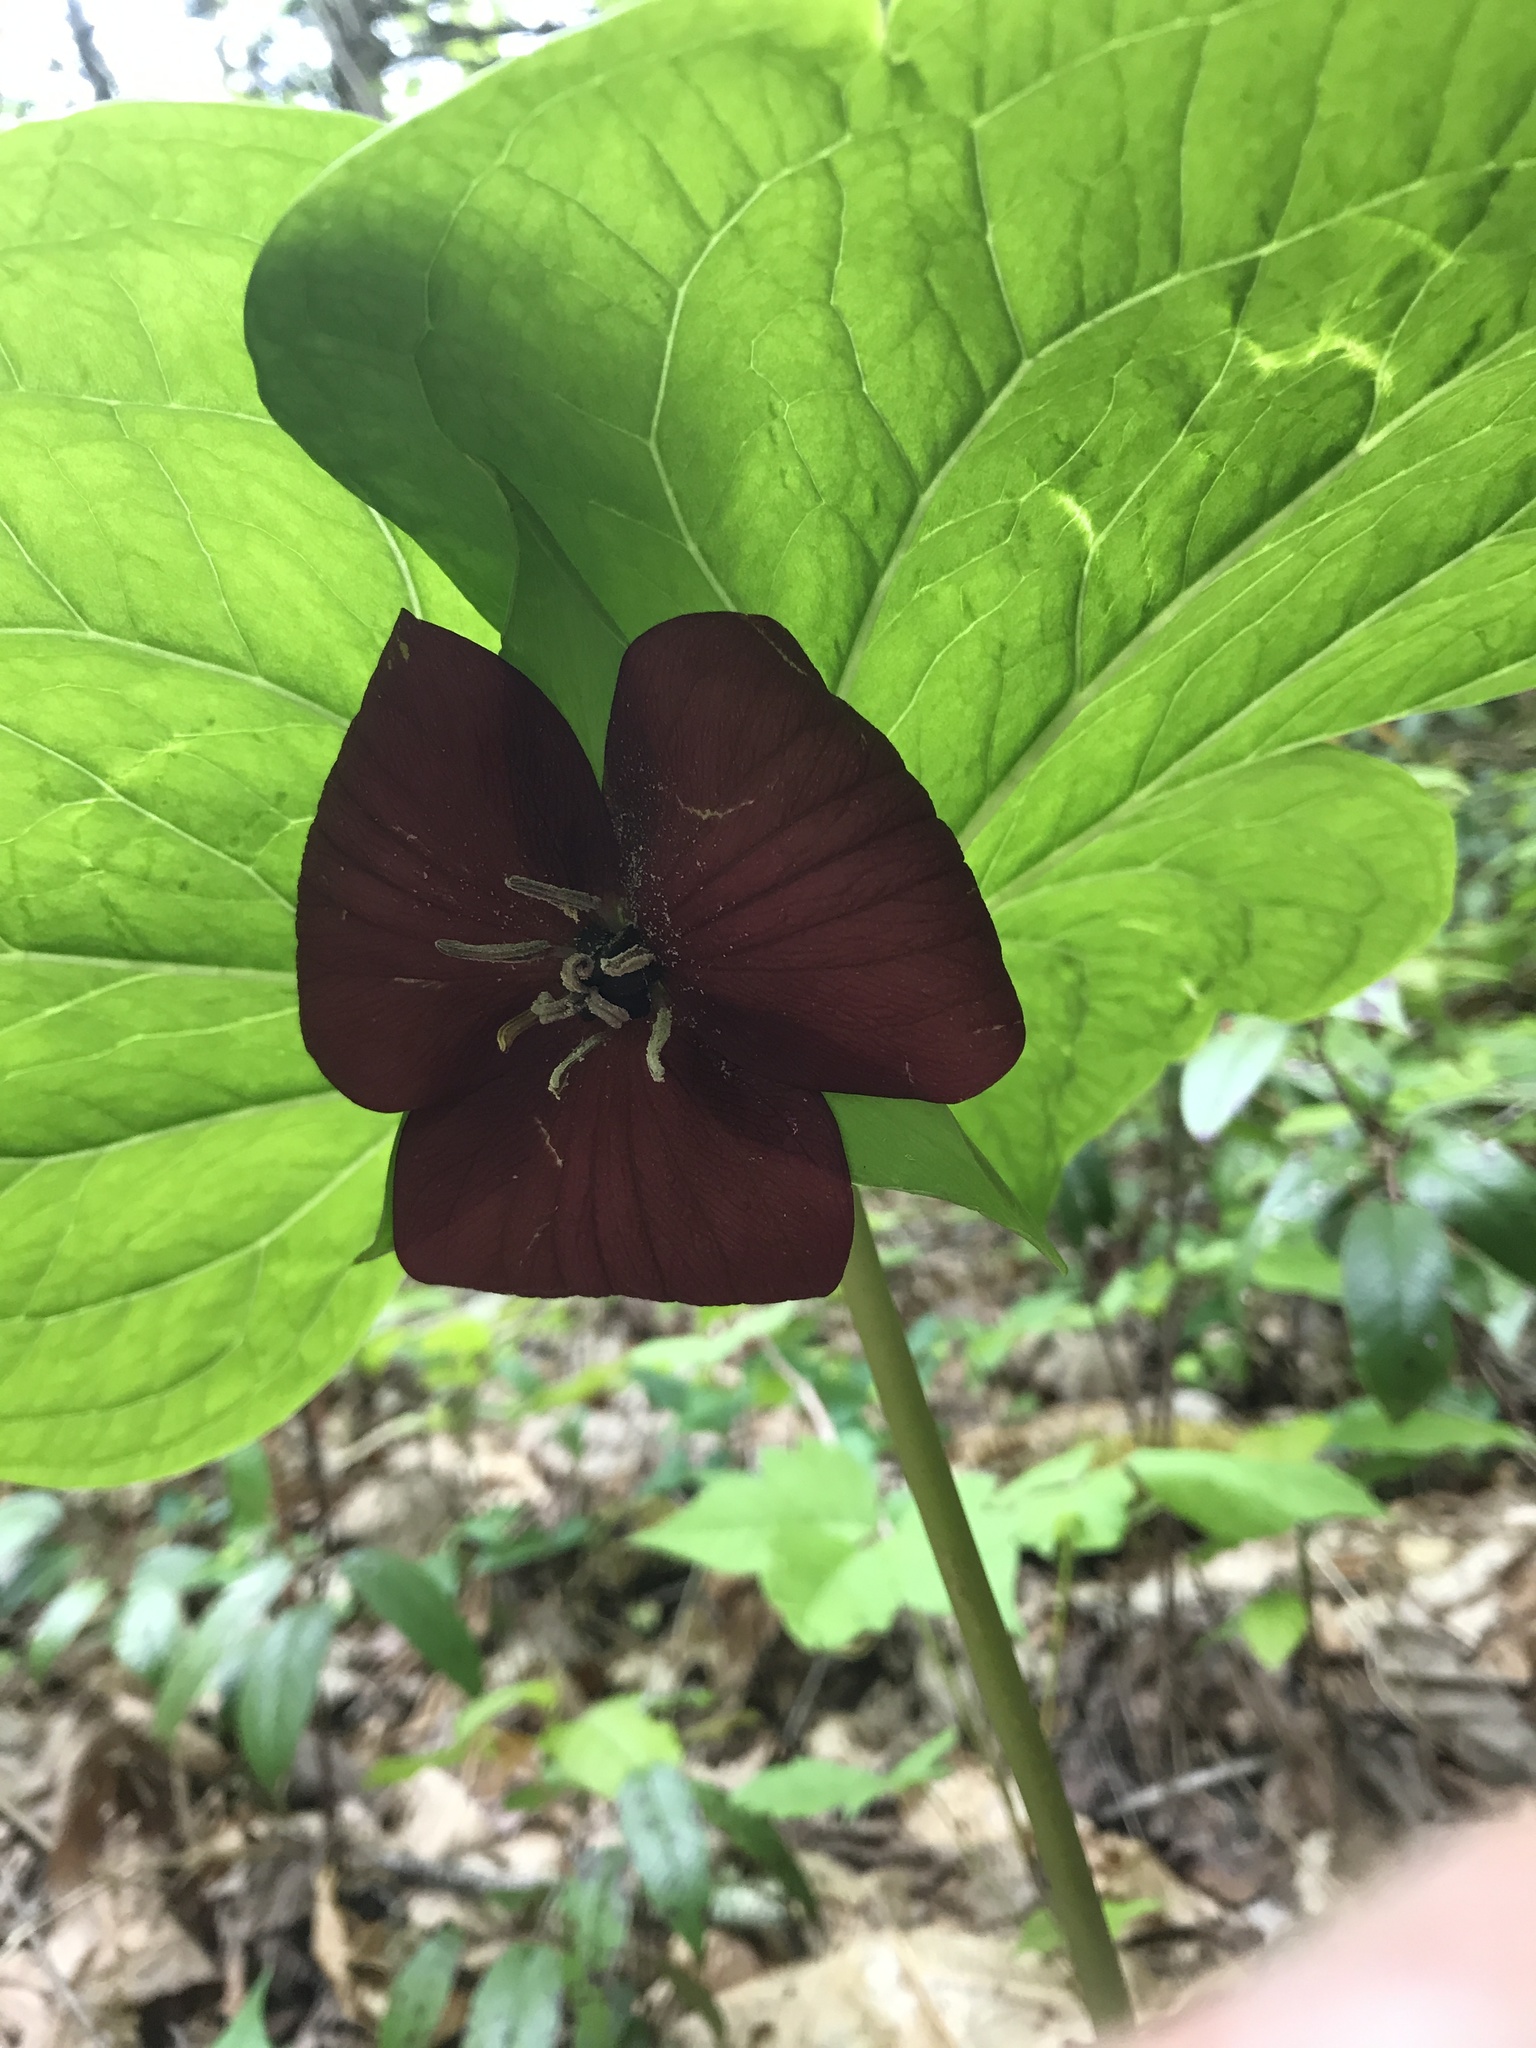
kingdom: Plantae
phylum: Tracheophyta
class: Liliopsida
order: Liliales
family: Melanthiaceae
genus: Trillium
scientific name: Trillium vaseyi
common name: Sweet trillium
